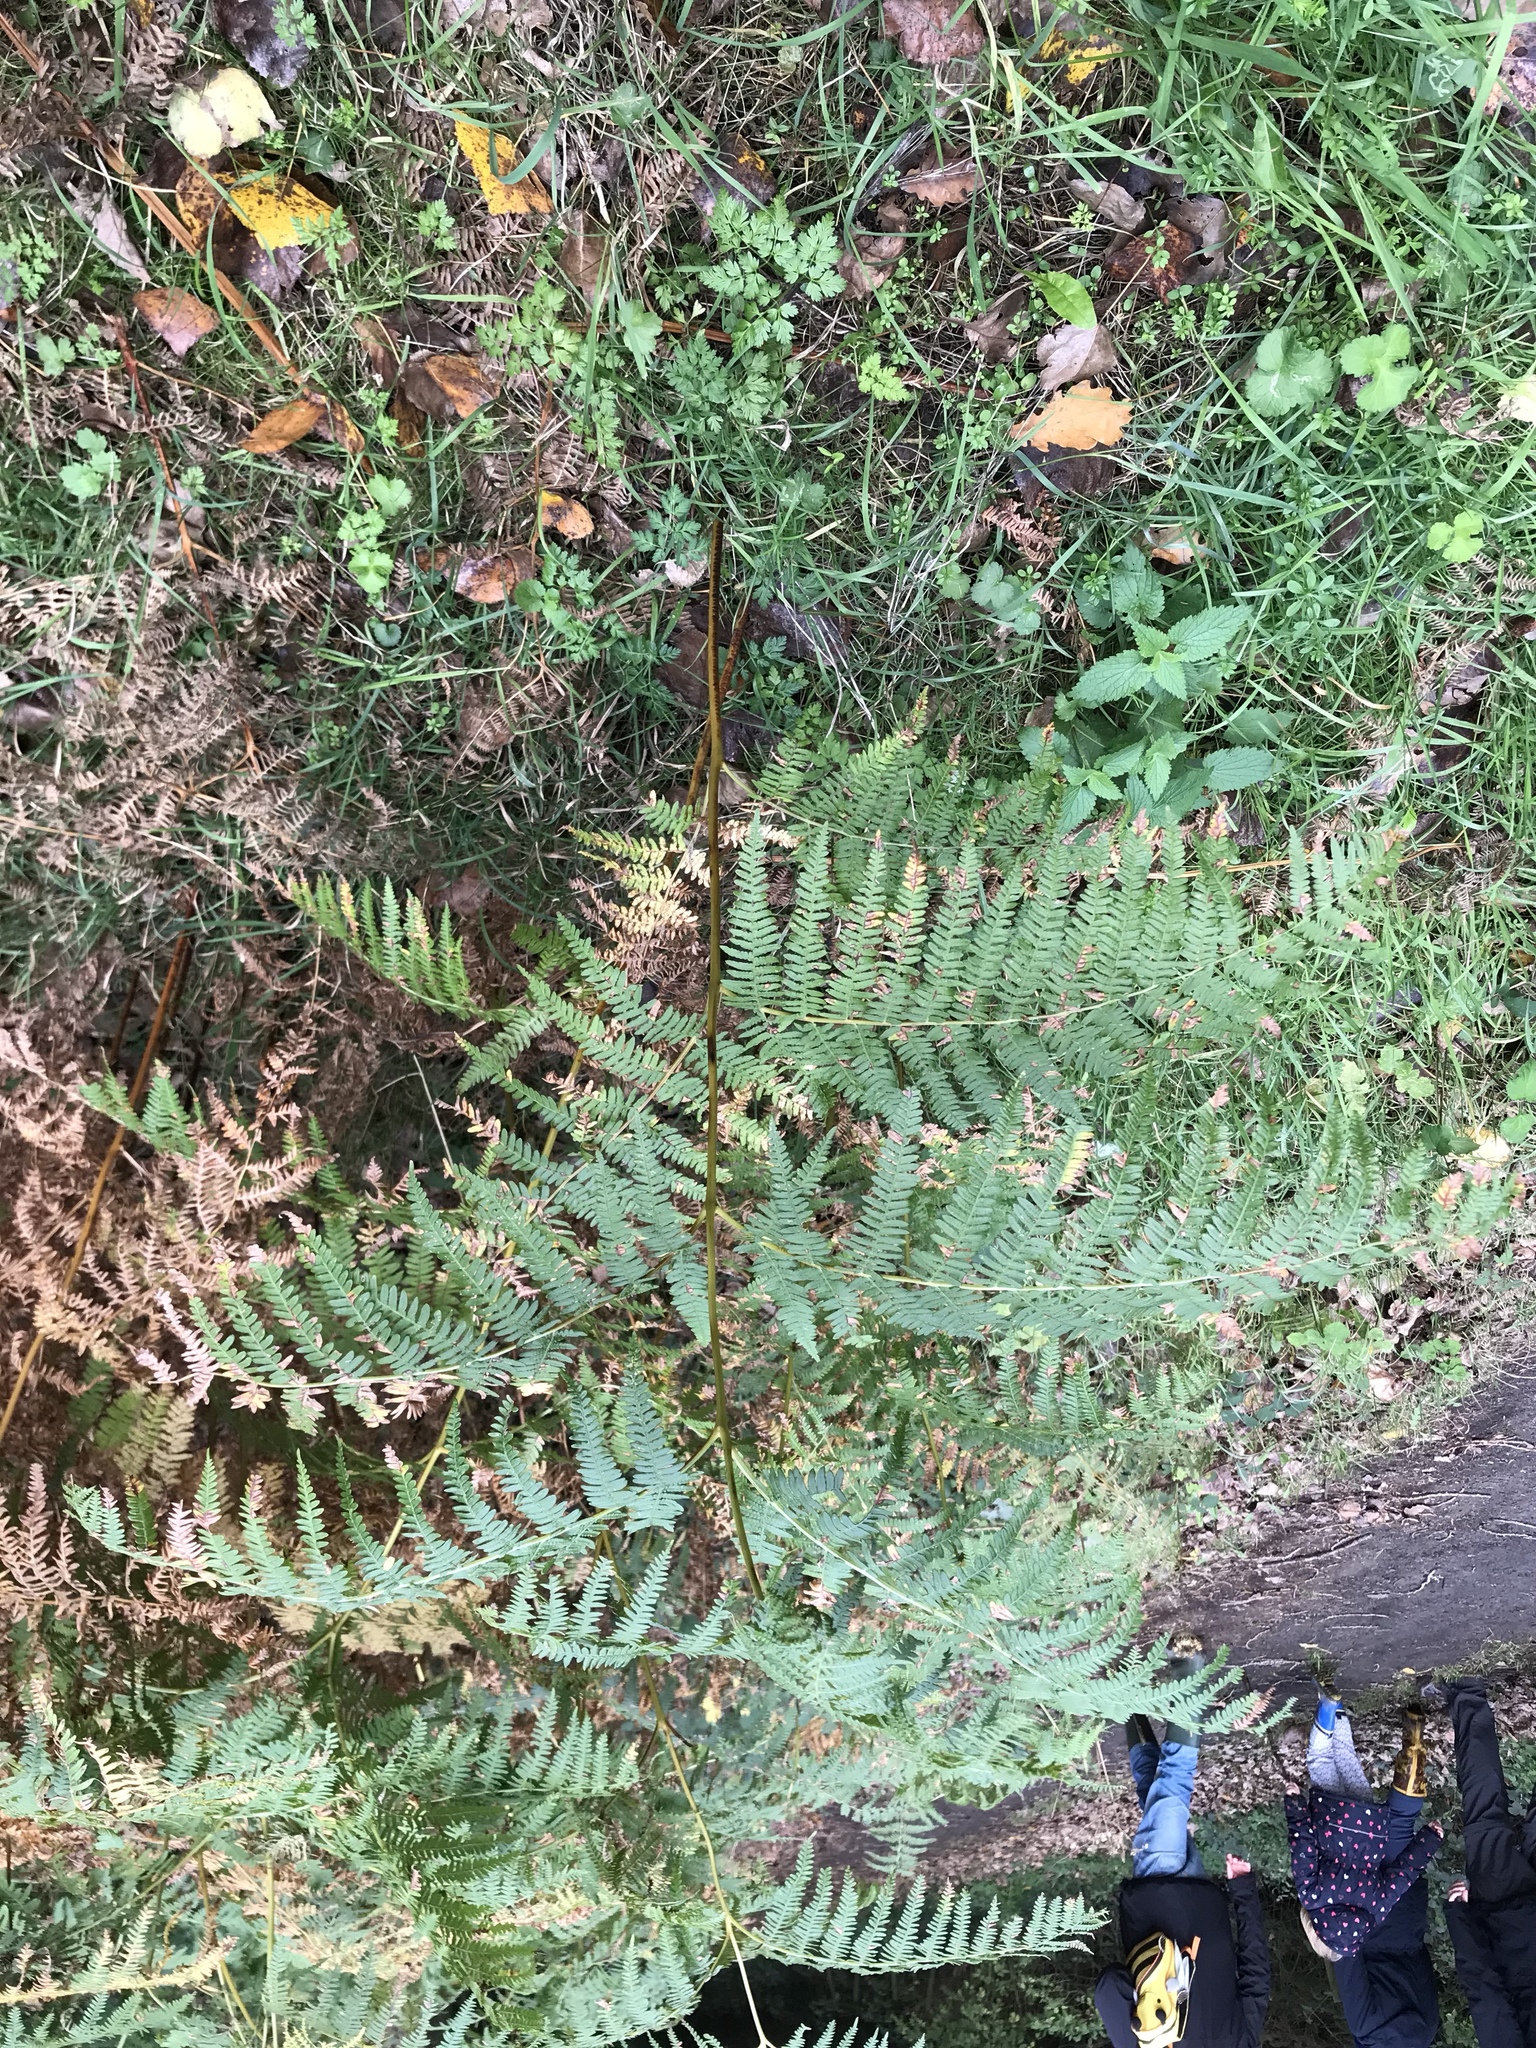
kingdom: Plantae
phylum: Tracheophyta
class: Polypodiopsida
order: Polypodiales
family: Dennstaedtiaceae
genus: Pteridium
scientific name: Pteridium aquilinum
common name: Bracken
